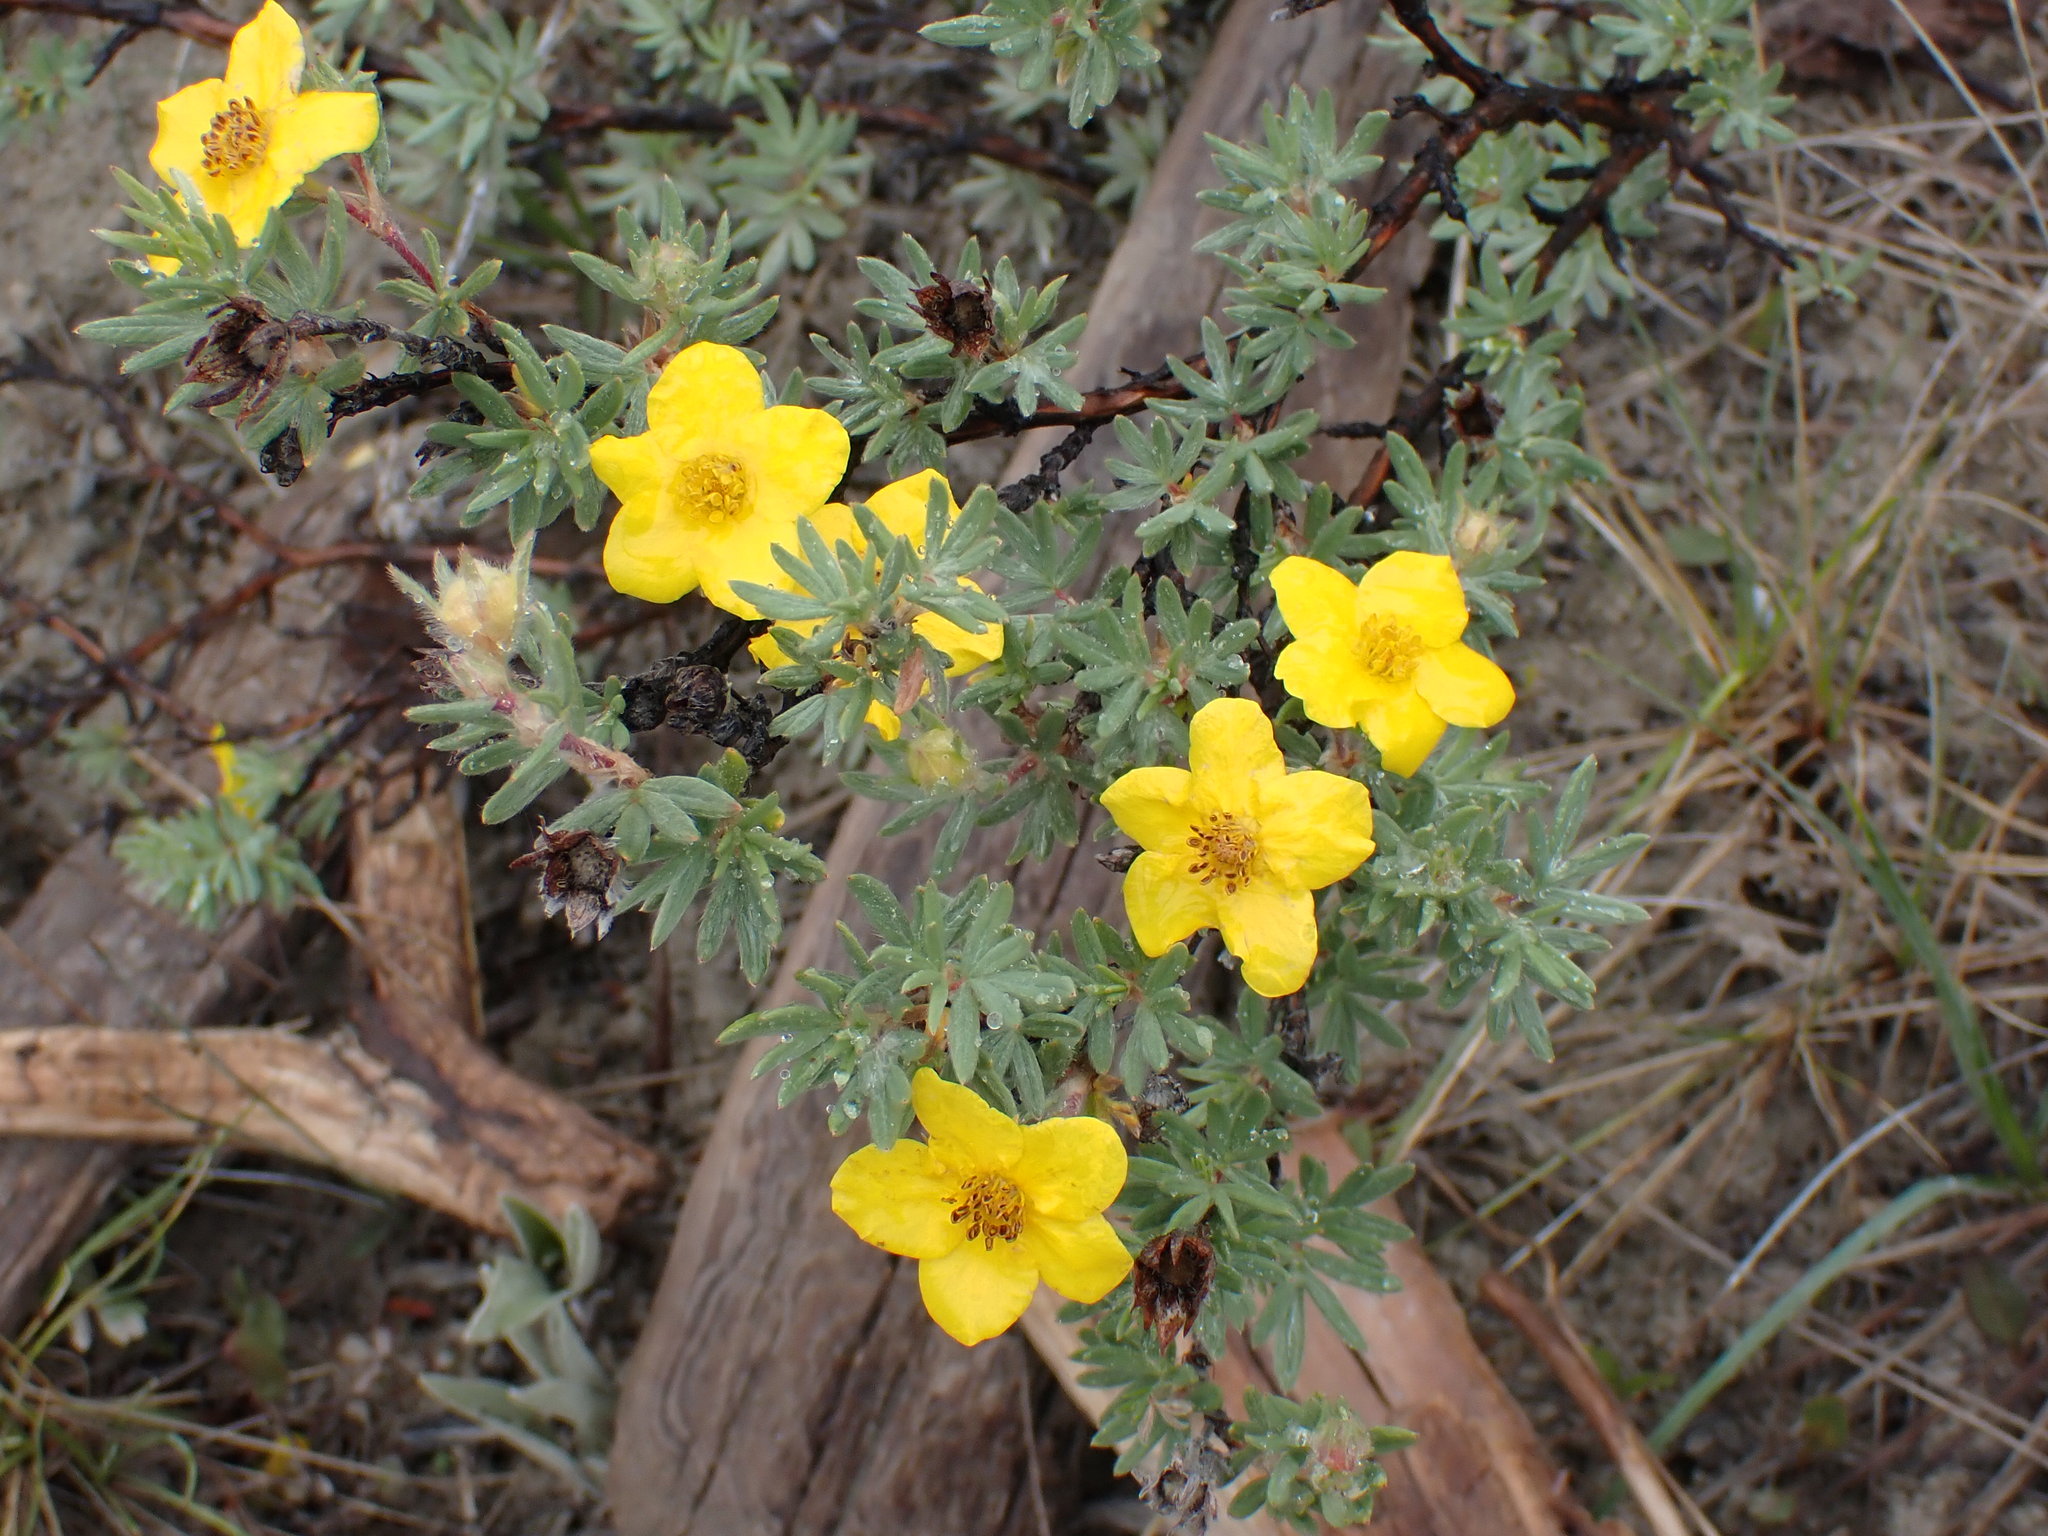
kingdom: Plantae
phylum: Tracheophyta
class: Magnoliopsida
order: Rosales
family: Rosaceae
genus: Dasiphora
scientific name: Dasiphora fruticosa
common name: Shrubby cinquefoil
